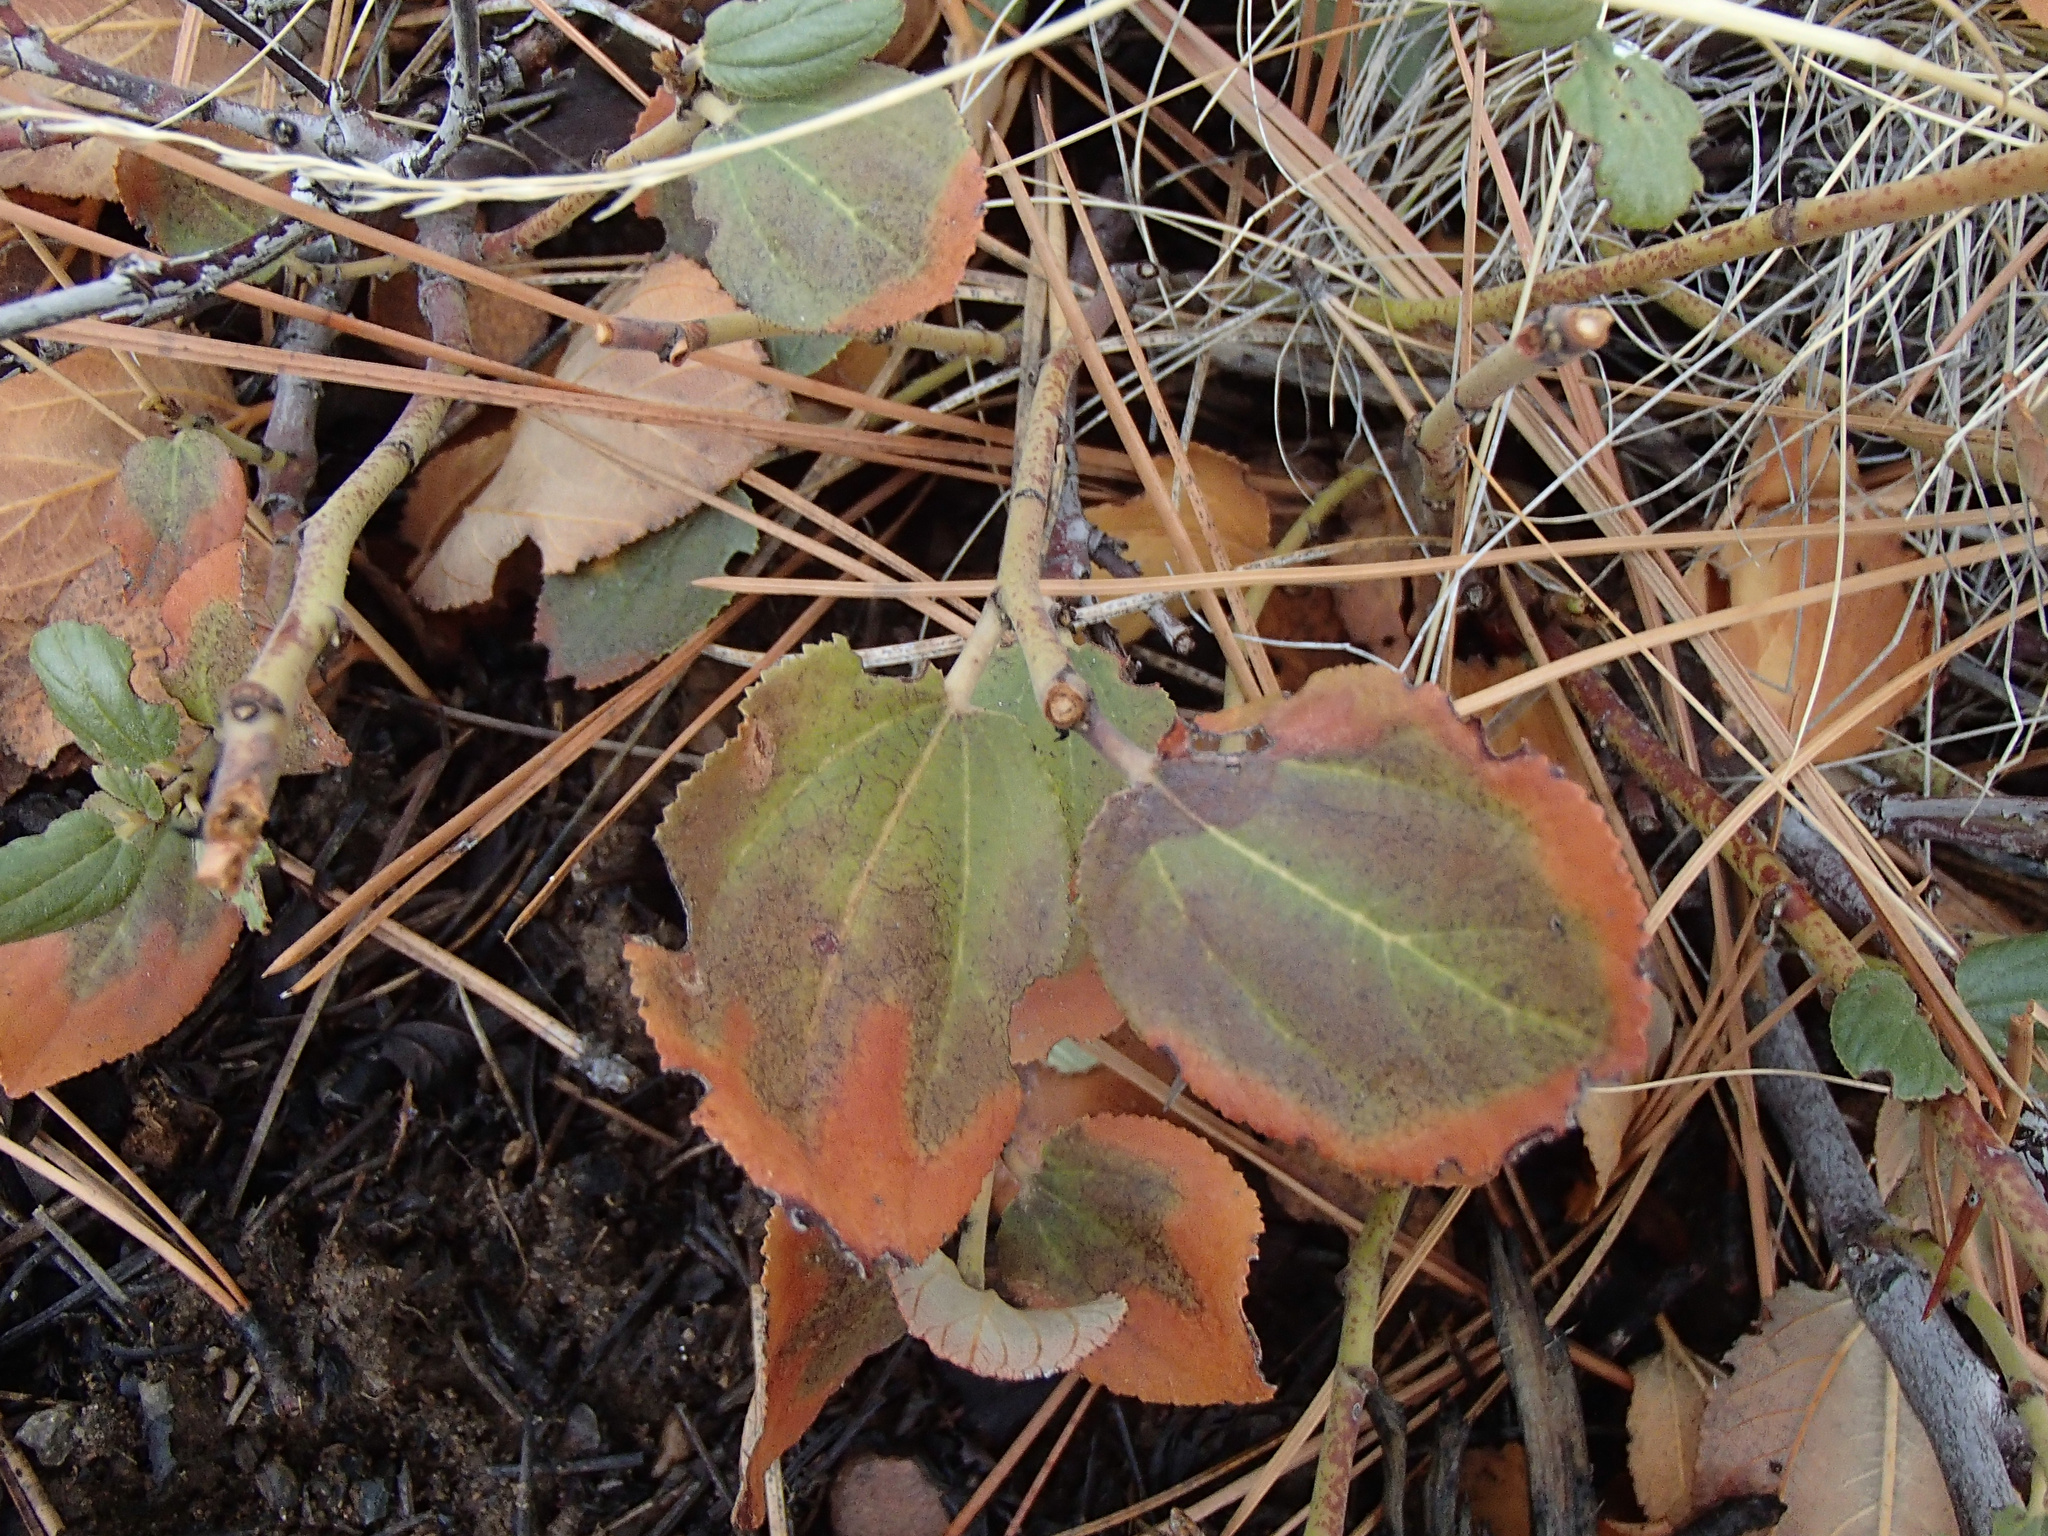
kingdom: Plantae
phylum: Tracheophyta
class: Magnoliopsida
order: Rosales
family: Rhamnaceae
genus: Ceanothus
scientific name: Ceanothus velutinus
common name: Snowbrush
